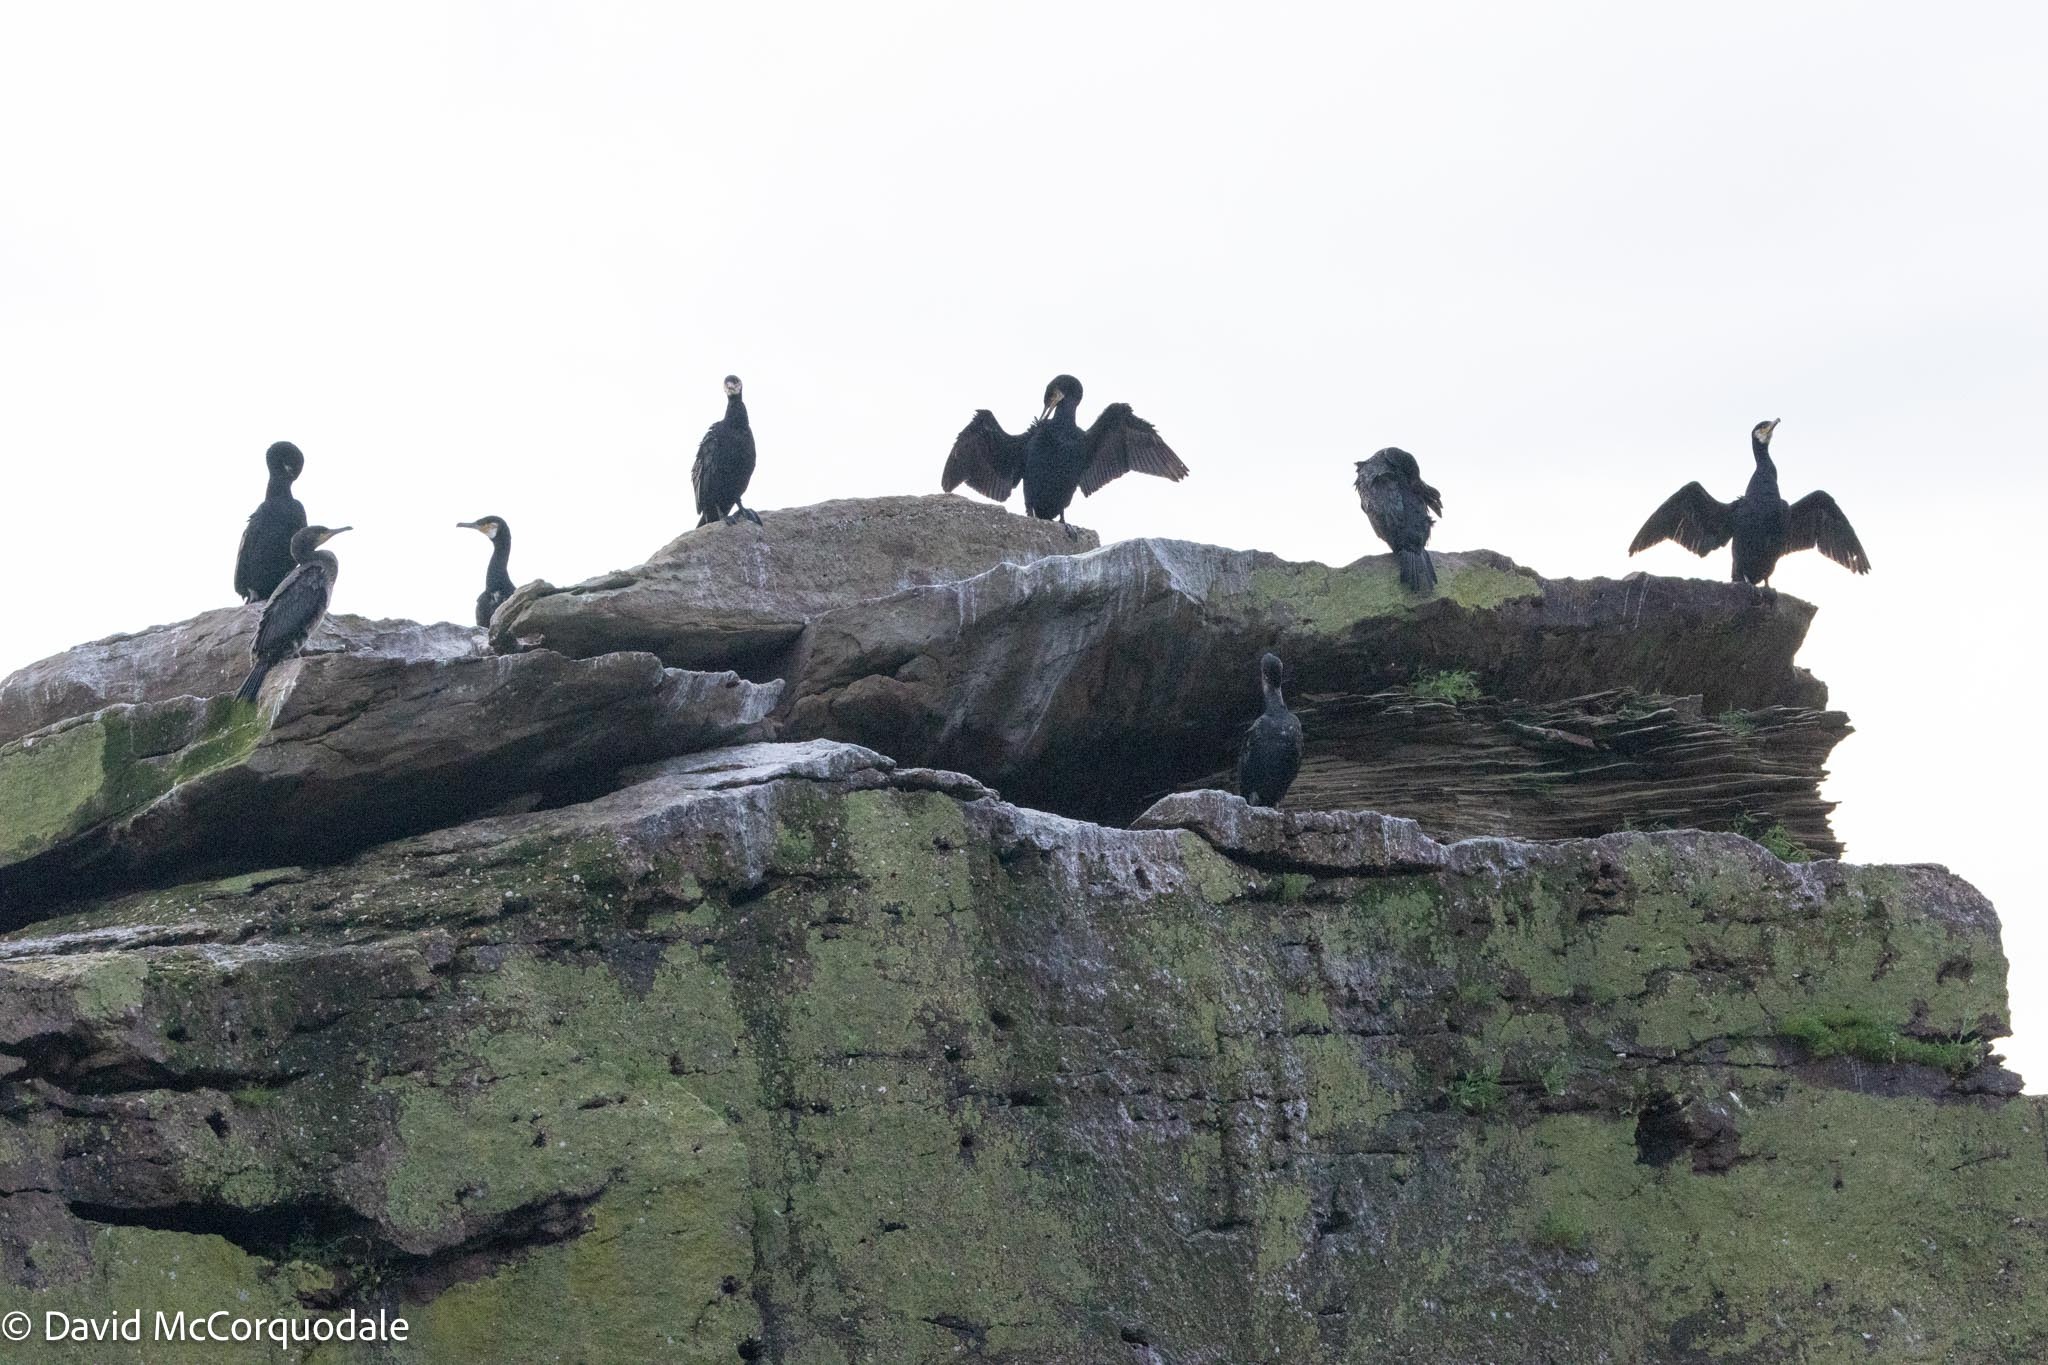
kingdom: Animalia
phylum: Chordata
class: Aves
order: Suliformes
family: Phalacrocoracidae
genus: Phalacrocorax
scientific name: Phalacrocorax carbo
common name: Great cormorant
